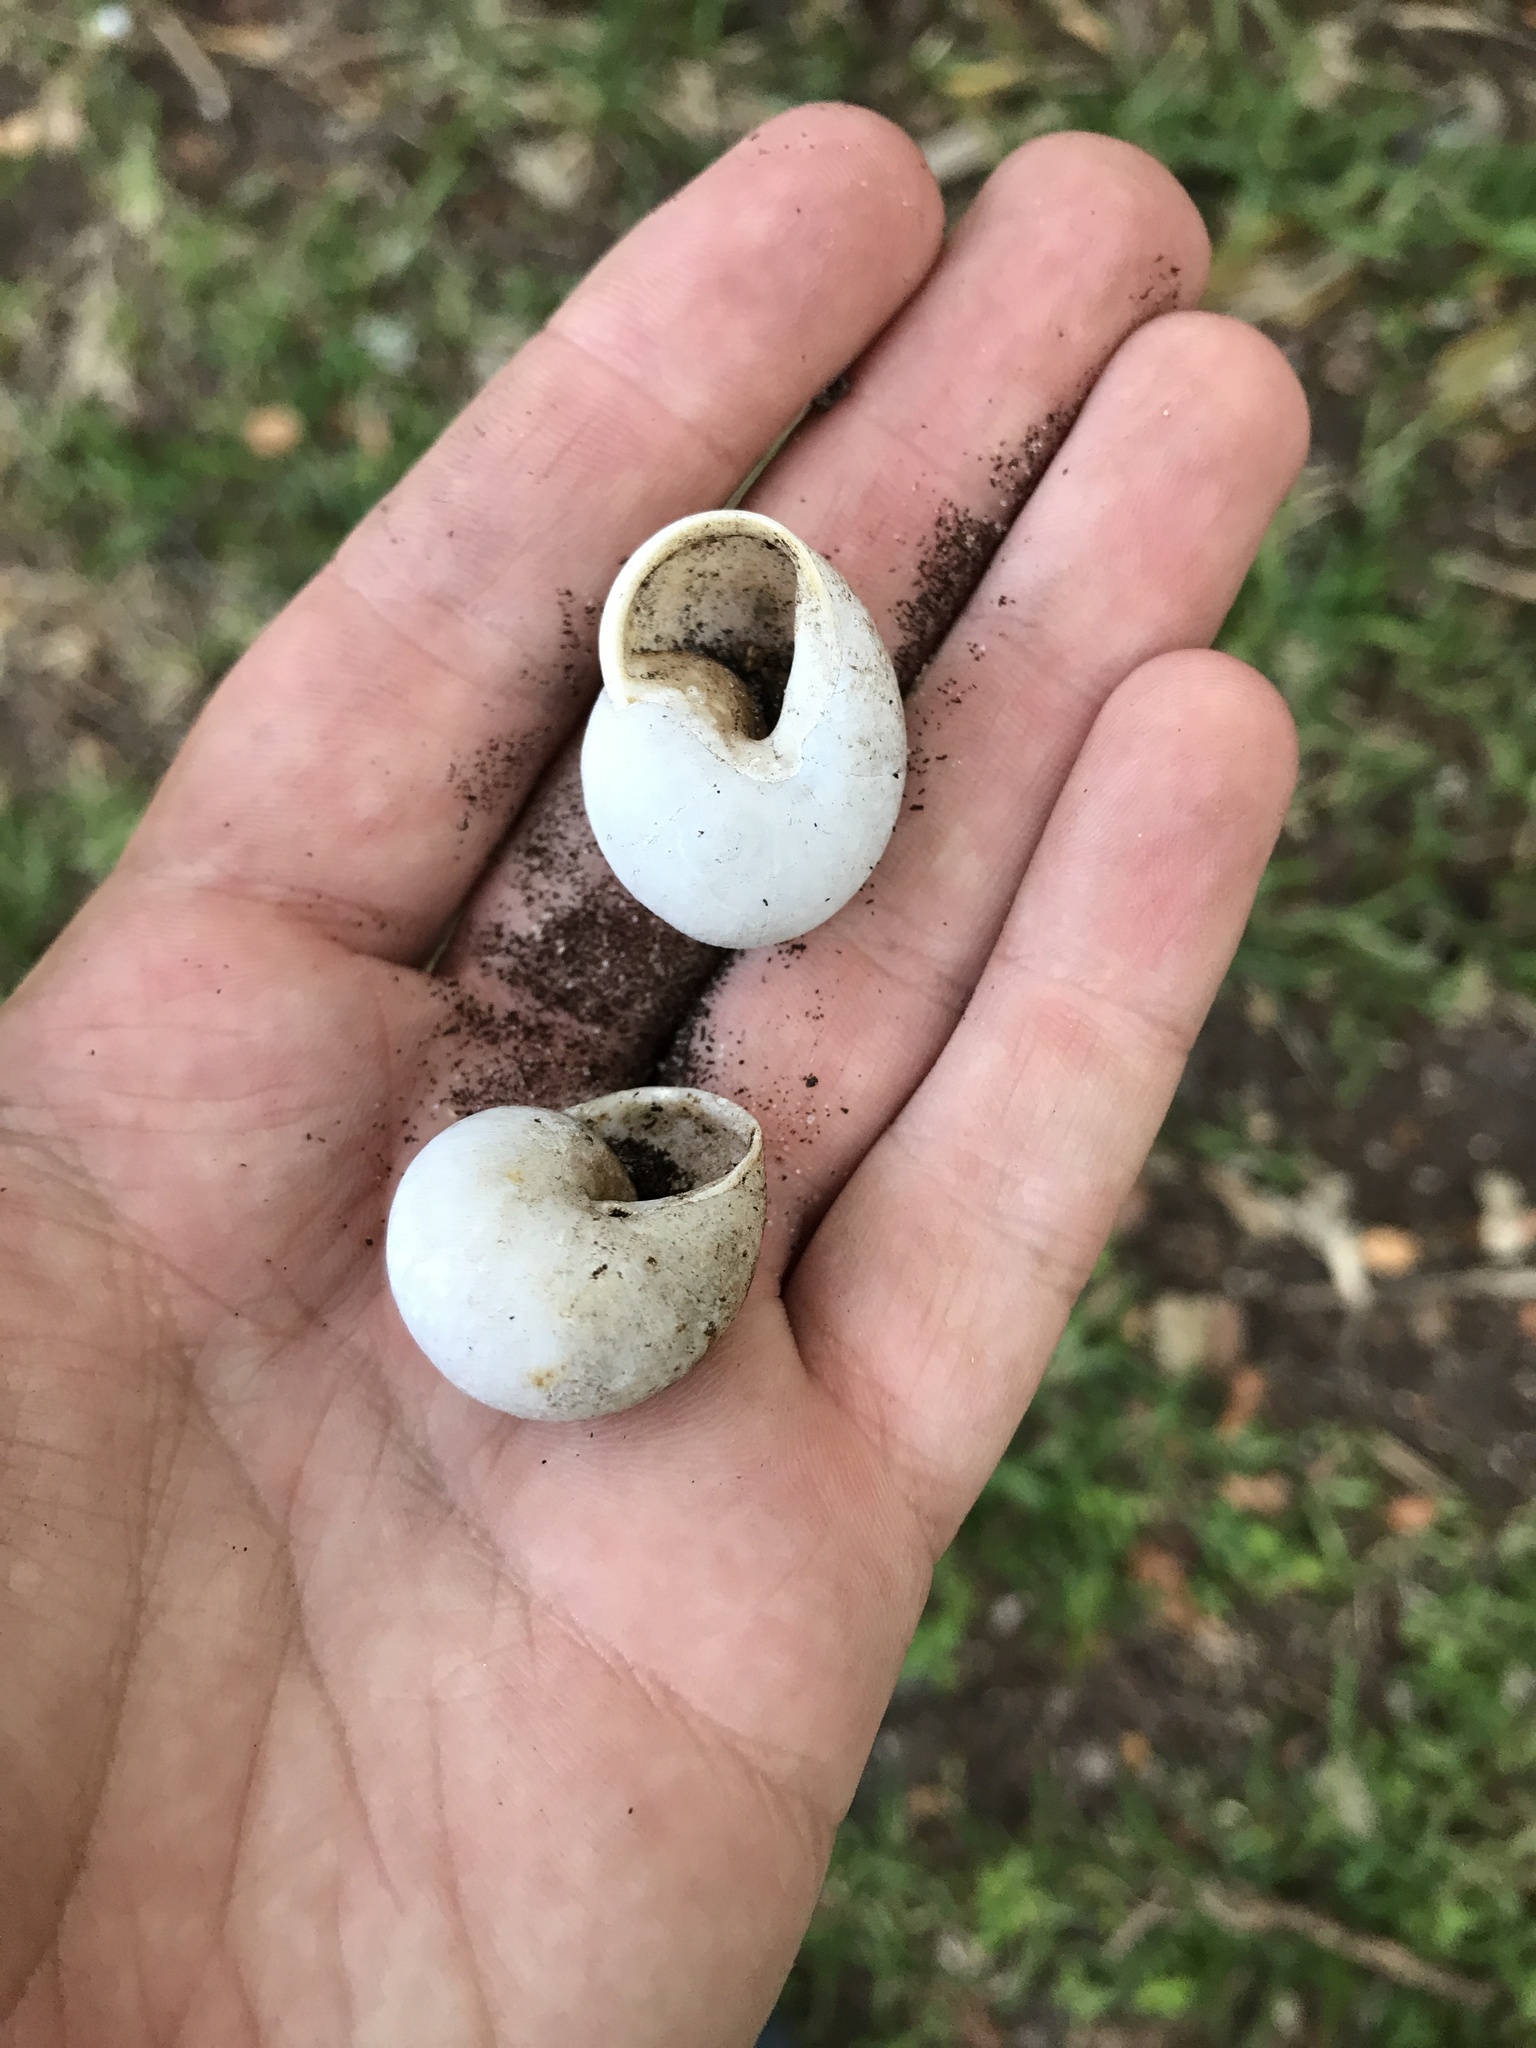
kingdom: Animalia
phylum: Mollusca
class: Gastropoda
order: Stylommatophora
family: Zachrysiidae
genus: Zachrysia
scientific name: Zachrysia provisoria
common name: Garden zachrysia
